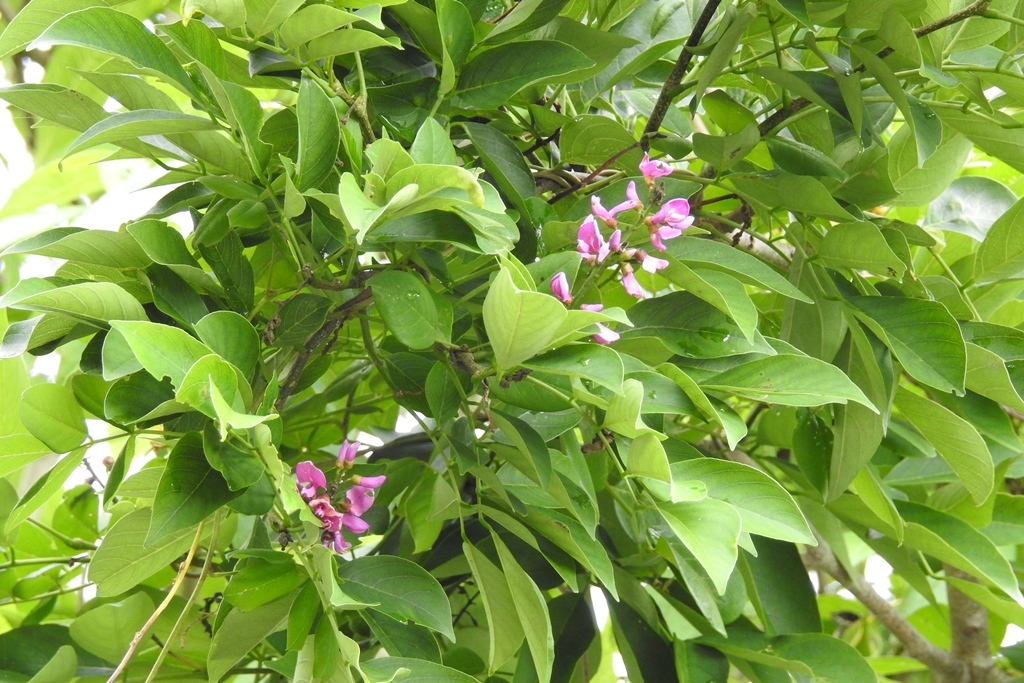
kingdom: Plantae
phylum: Tracheophyta
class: Magnoliopsida
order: Fabales
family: Fabaceae
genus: Lonchocarpus
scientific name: Lonchocarpus sumiderensis
